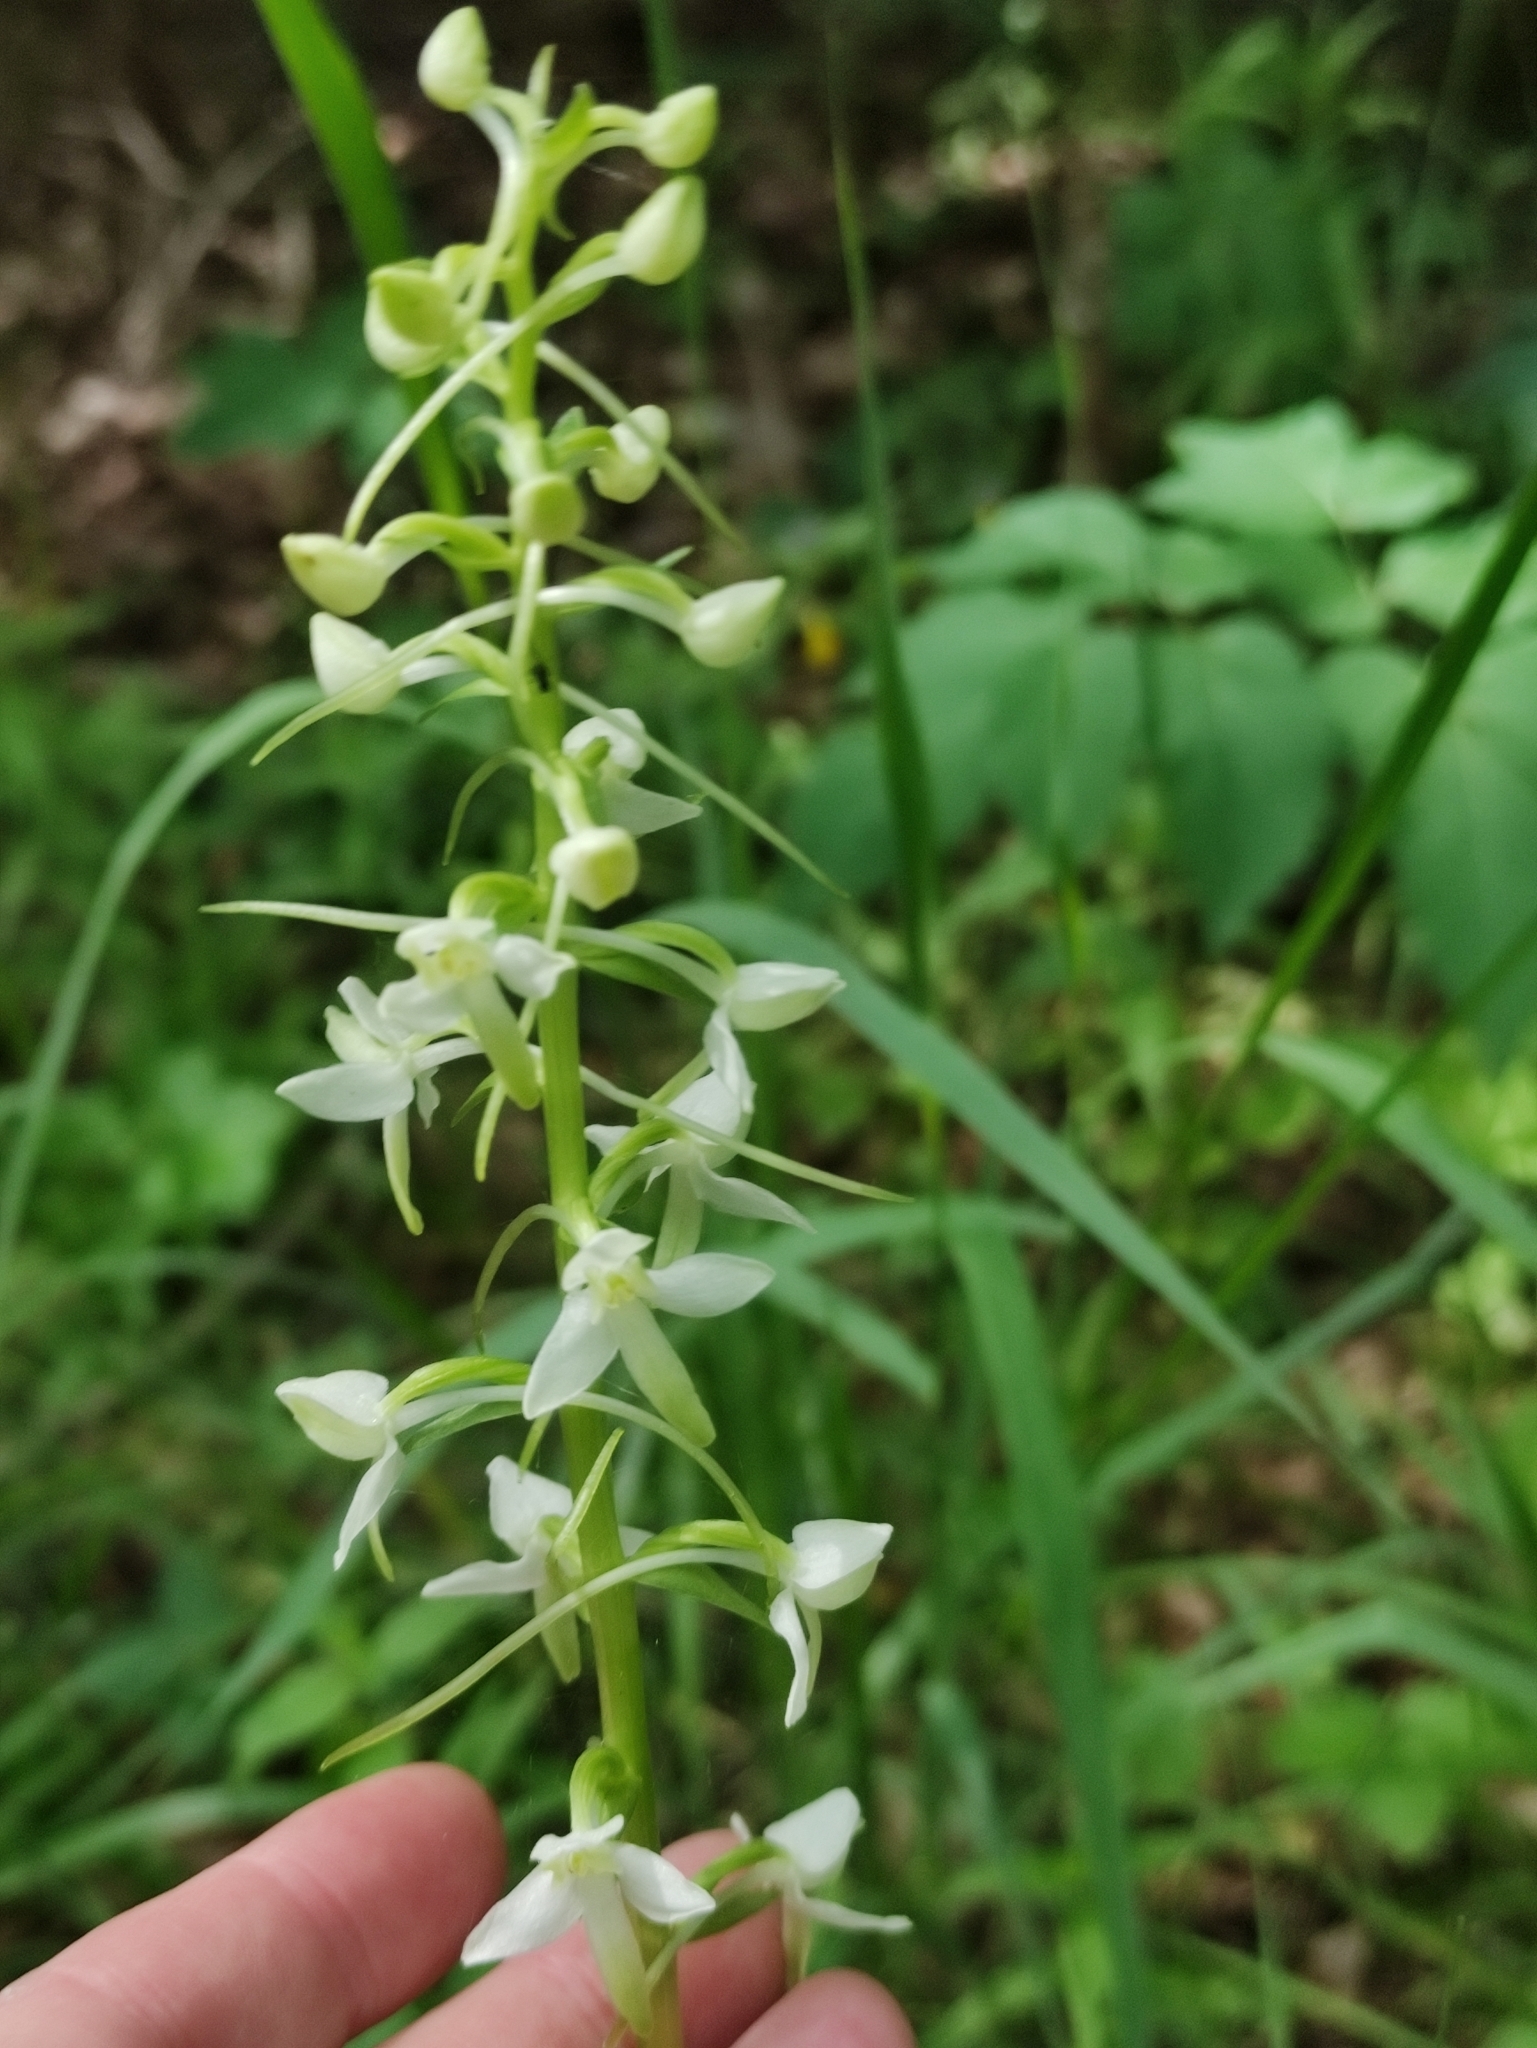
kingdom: Plantae
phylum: Tracheophyta
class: Liliopsida
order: Asparagales
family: Orchidaceae
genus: Platanthera
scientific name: Platanthera bifolia
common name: Lesser butterfly-orchid
